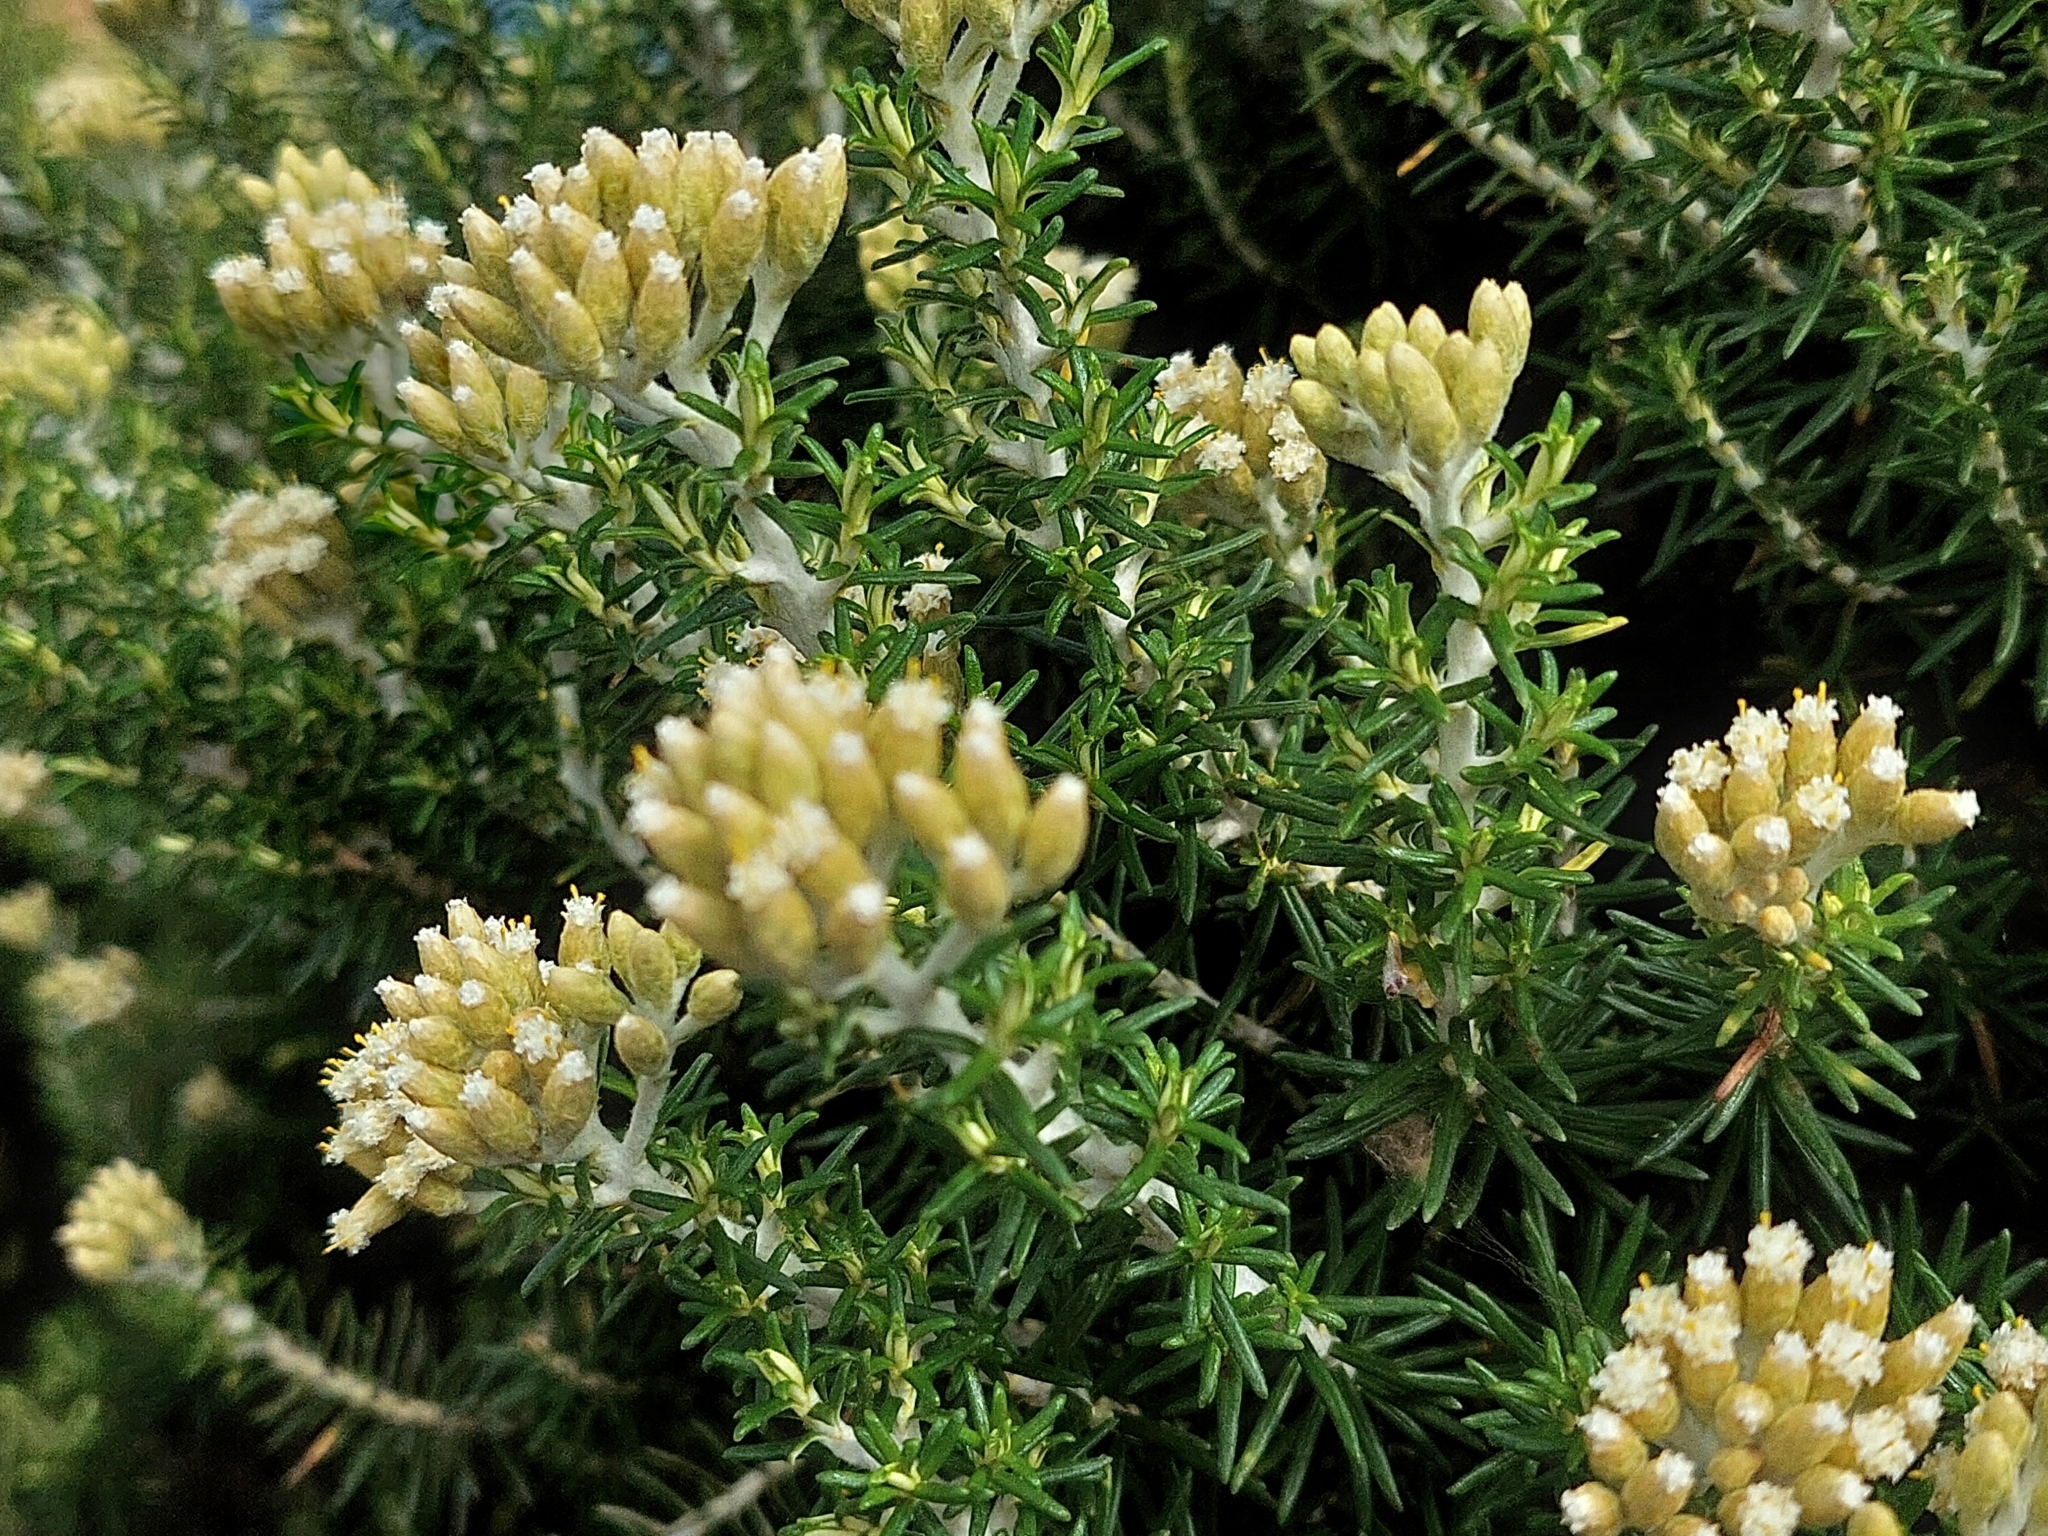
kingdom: Plantae
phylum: Tracheophyta
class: Magnoliopsida
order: Asterales
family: Asteraceae
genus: Ozothamnus
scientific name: Ozothamnus cinereus
